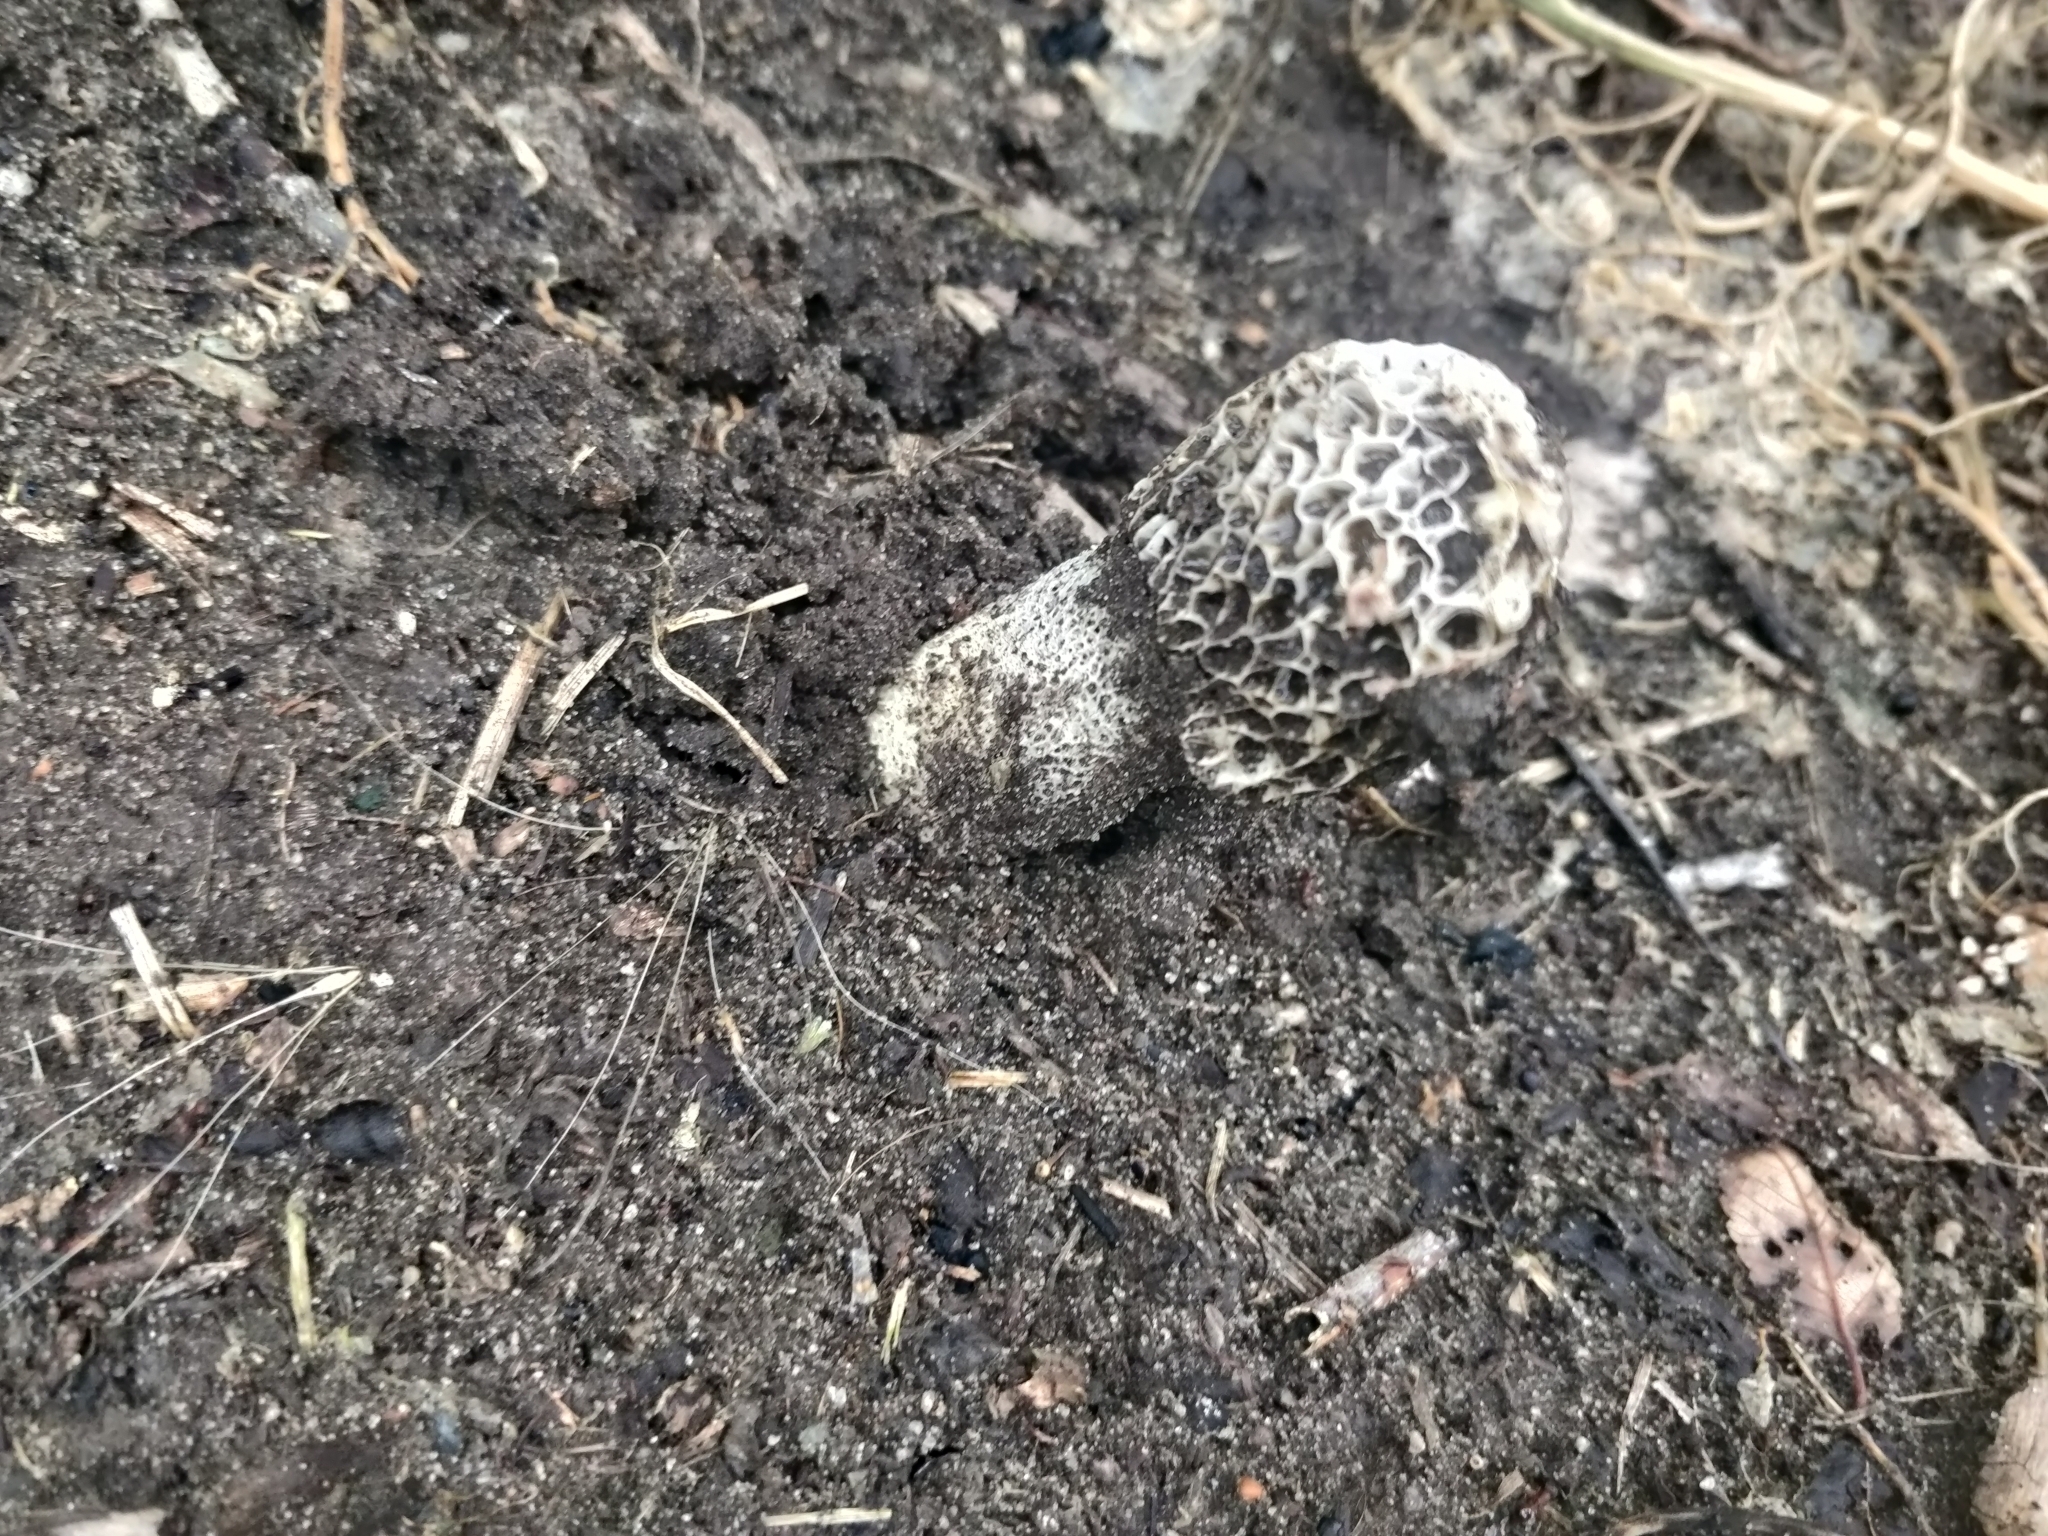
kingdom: Fungi
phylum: Basidiomycota
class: Agaricomycetes
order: Phallales
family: Phallaceae
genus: Phallus
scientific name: Phallus hadriani
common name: Sand stinkhorn
